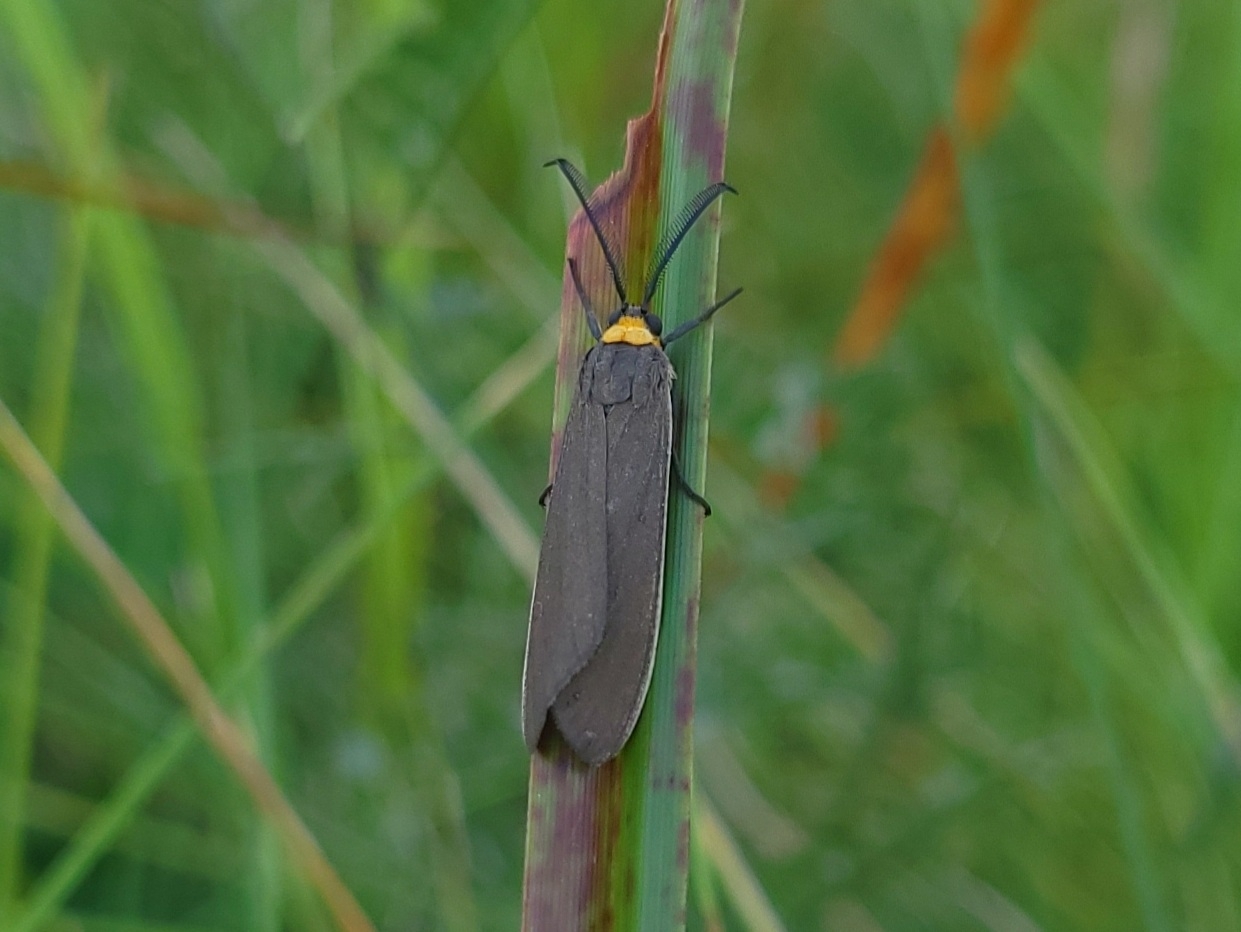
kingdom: Animalia
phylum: Arthropoda
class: Insecta
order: Lepidoptera
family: Erebidae
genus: Cisseps
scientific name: Cisseps fulvicollis
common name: Yellow-collared scape moth
